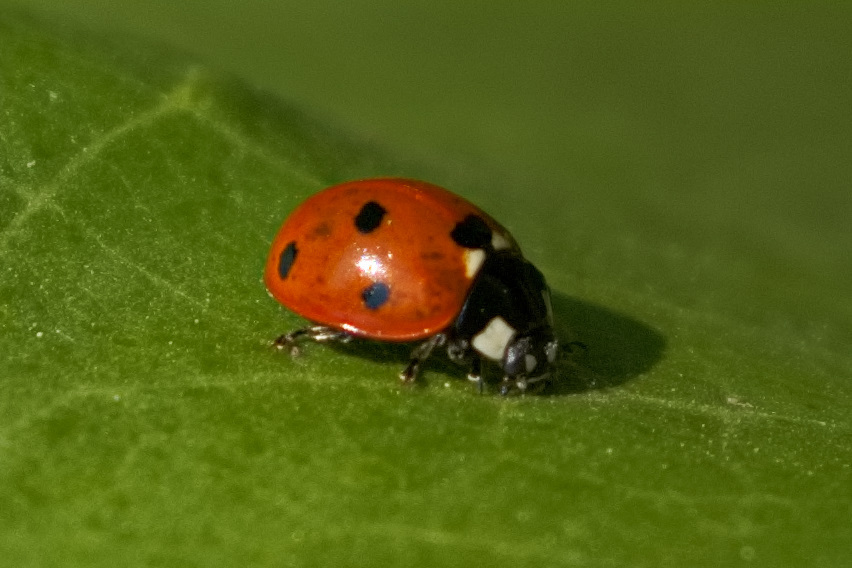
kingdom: Animalia
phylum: Arthropoda
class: Insecta
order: Coleoptera
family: Coccinellidae
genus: Coccinella
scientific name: Coccinella septempunctata
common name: Sevenspotted lady beetle
